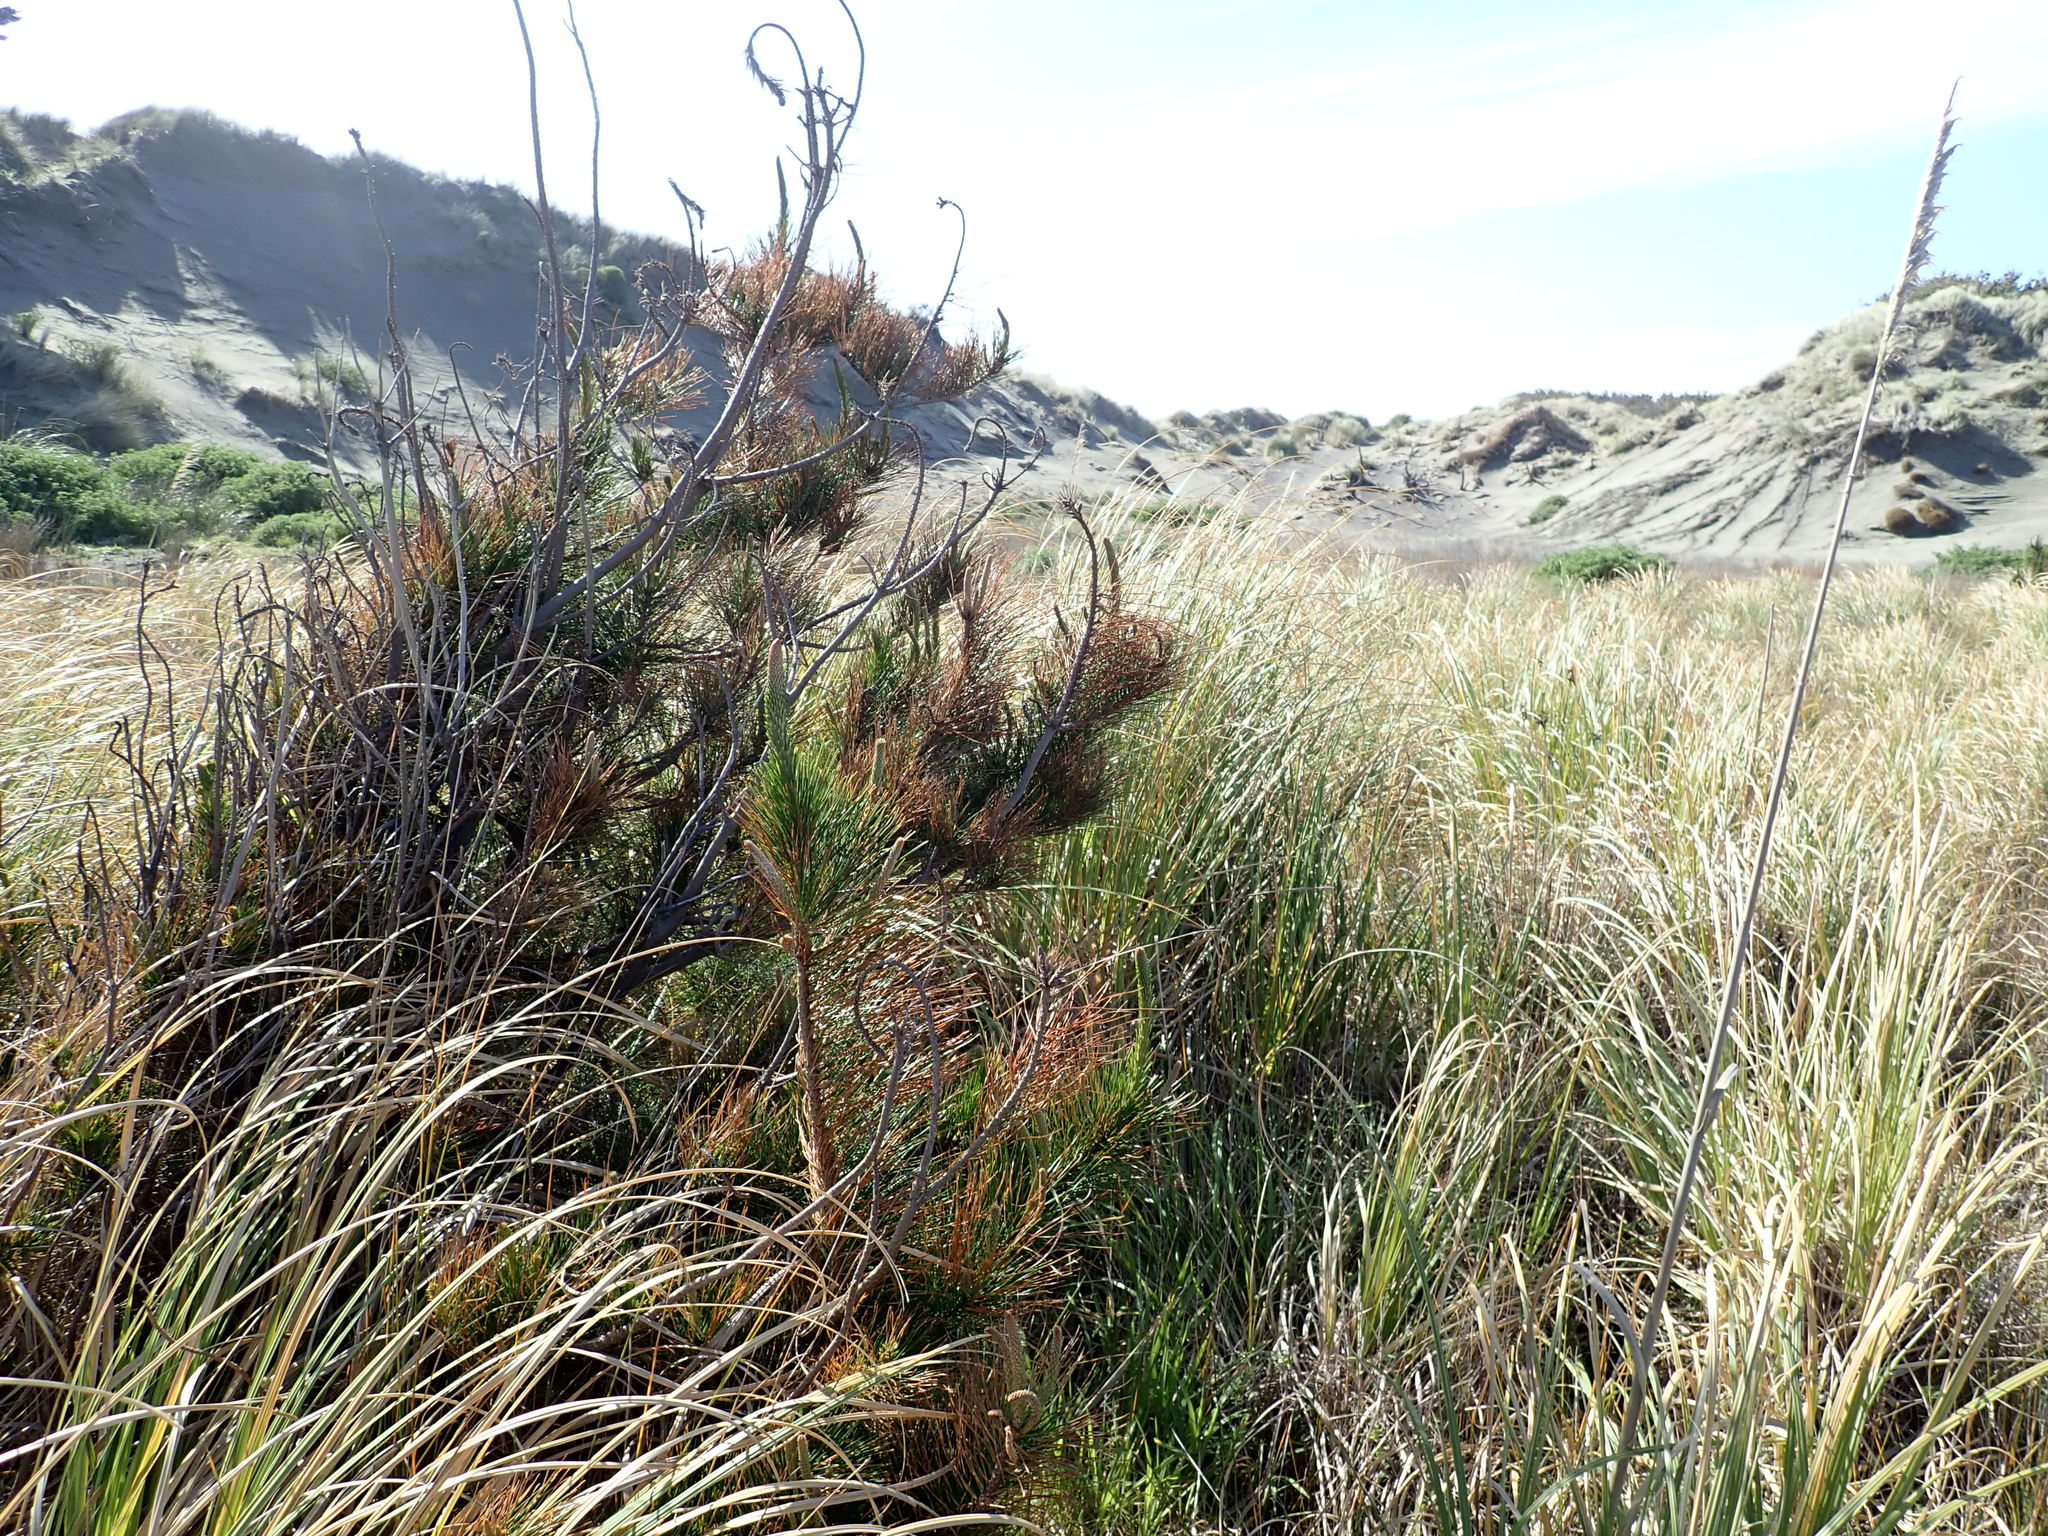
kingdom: Plantae
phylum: Tracheophyta
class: Pinopsida
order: Pinales
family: Pinaceae
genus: Pinus
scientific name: Pinus radiata
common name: Monterey pine
